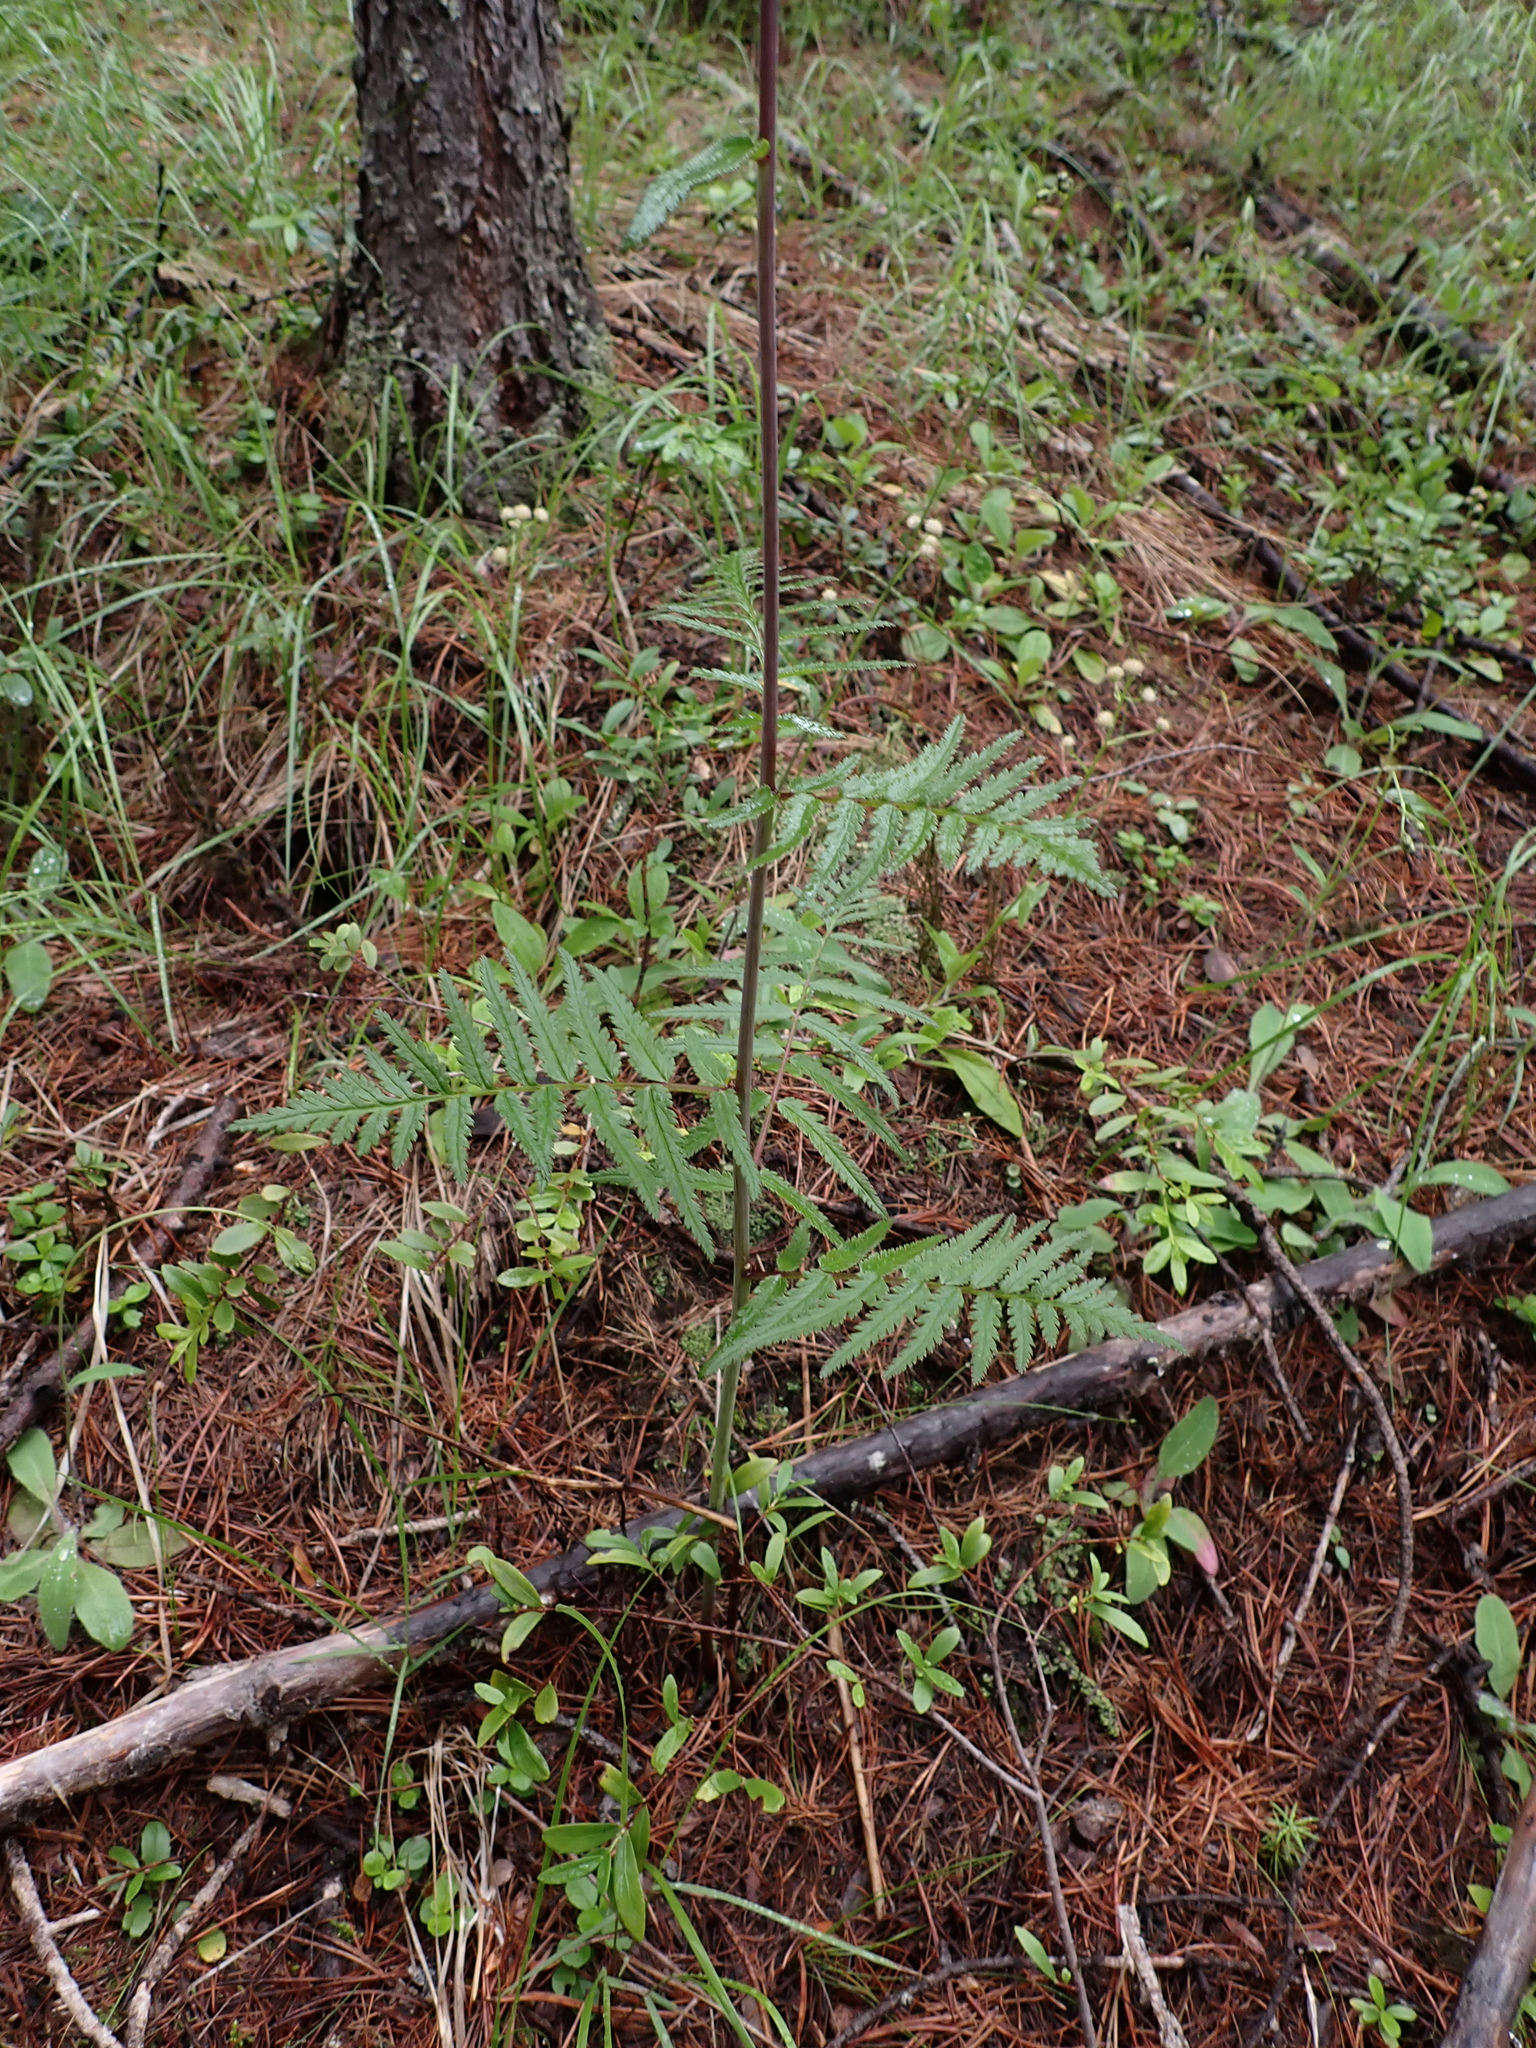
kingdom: Plantae
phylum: Tracheophyta
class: Magnoliopsida
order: Lamiales
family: Orobanchaceae
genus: Pedicularis
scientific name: Pedicularis bracteosa
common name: Bracted lousewort
